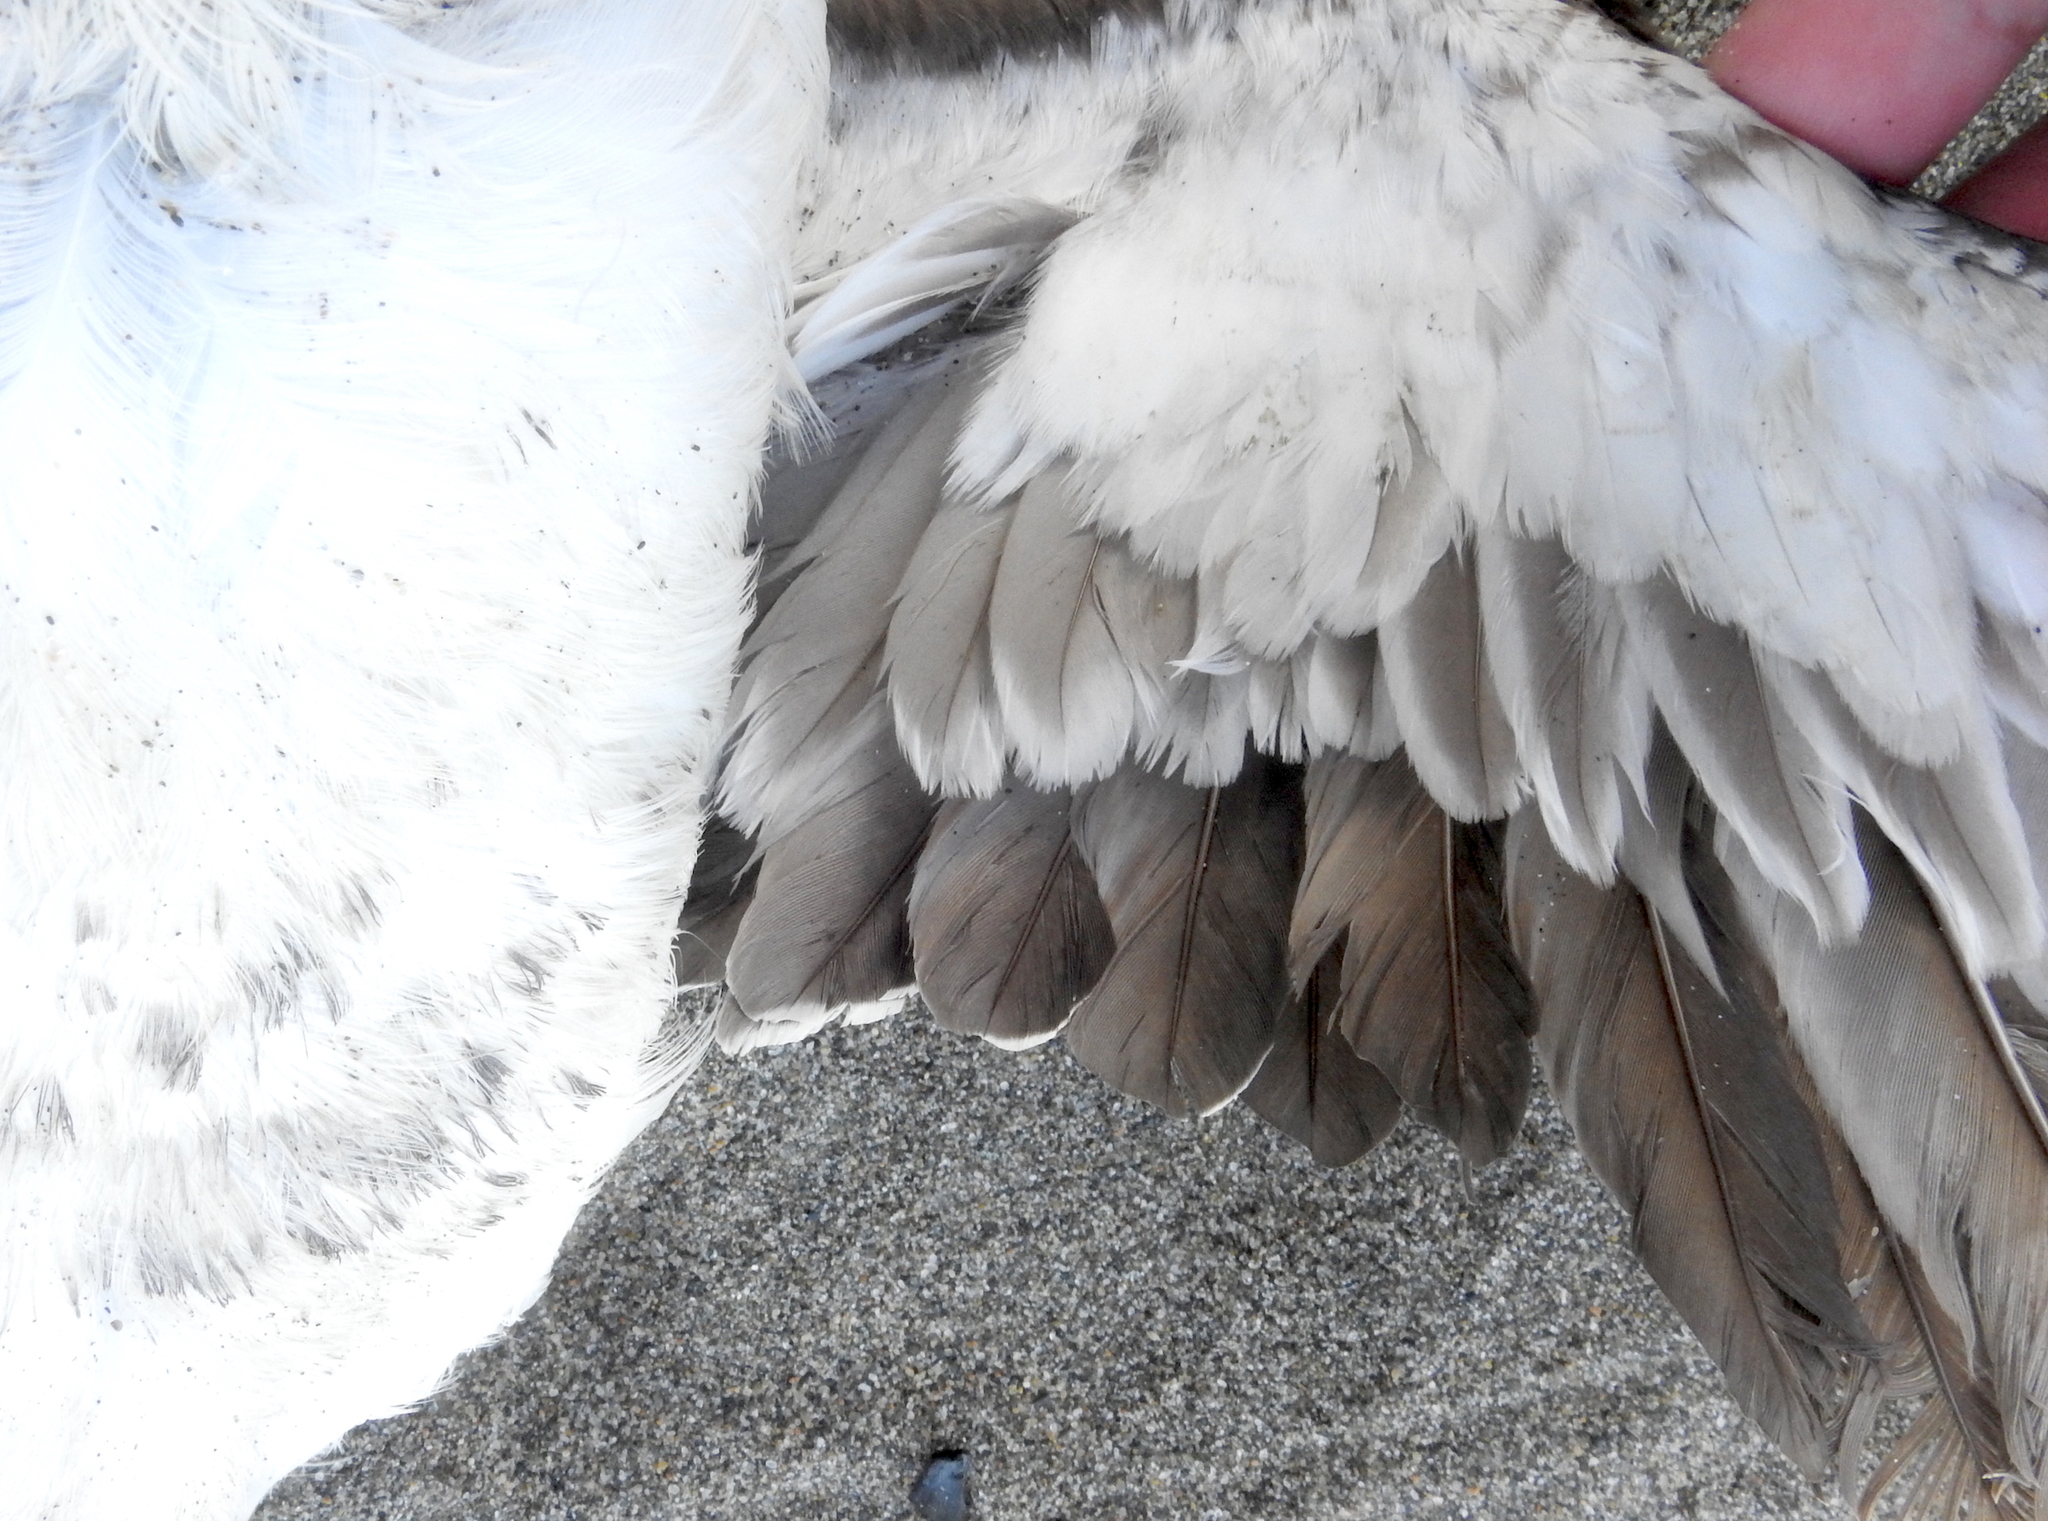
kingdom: Animalia
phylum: Chordata
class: Aves
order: Charadriiformes
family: Alcidae
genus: Uria
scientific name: Uria aalge
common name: Common murre
